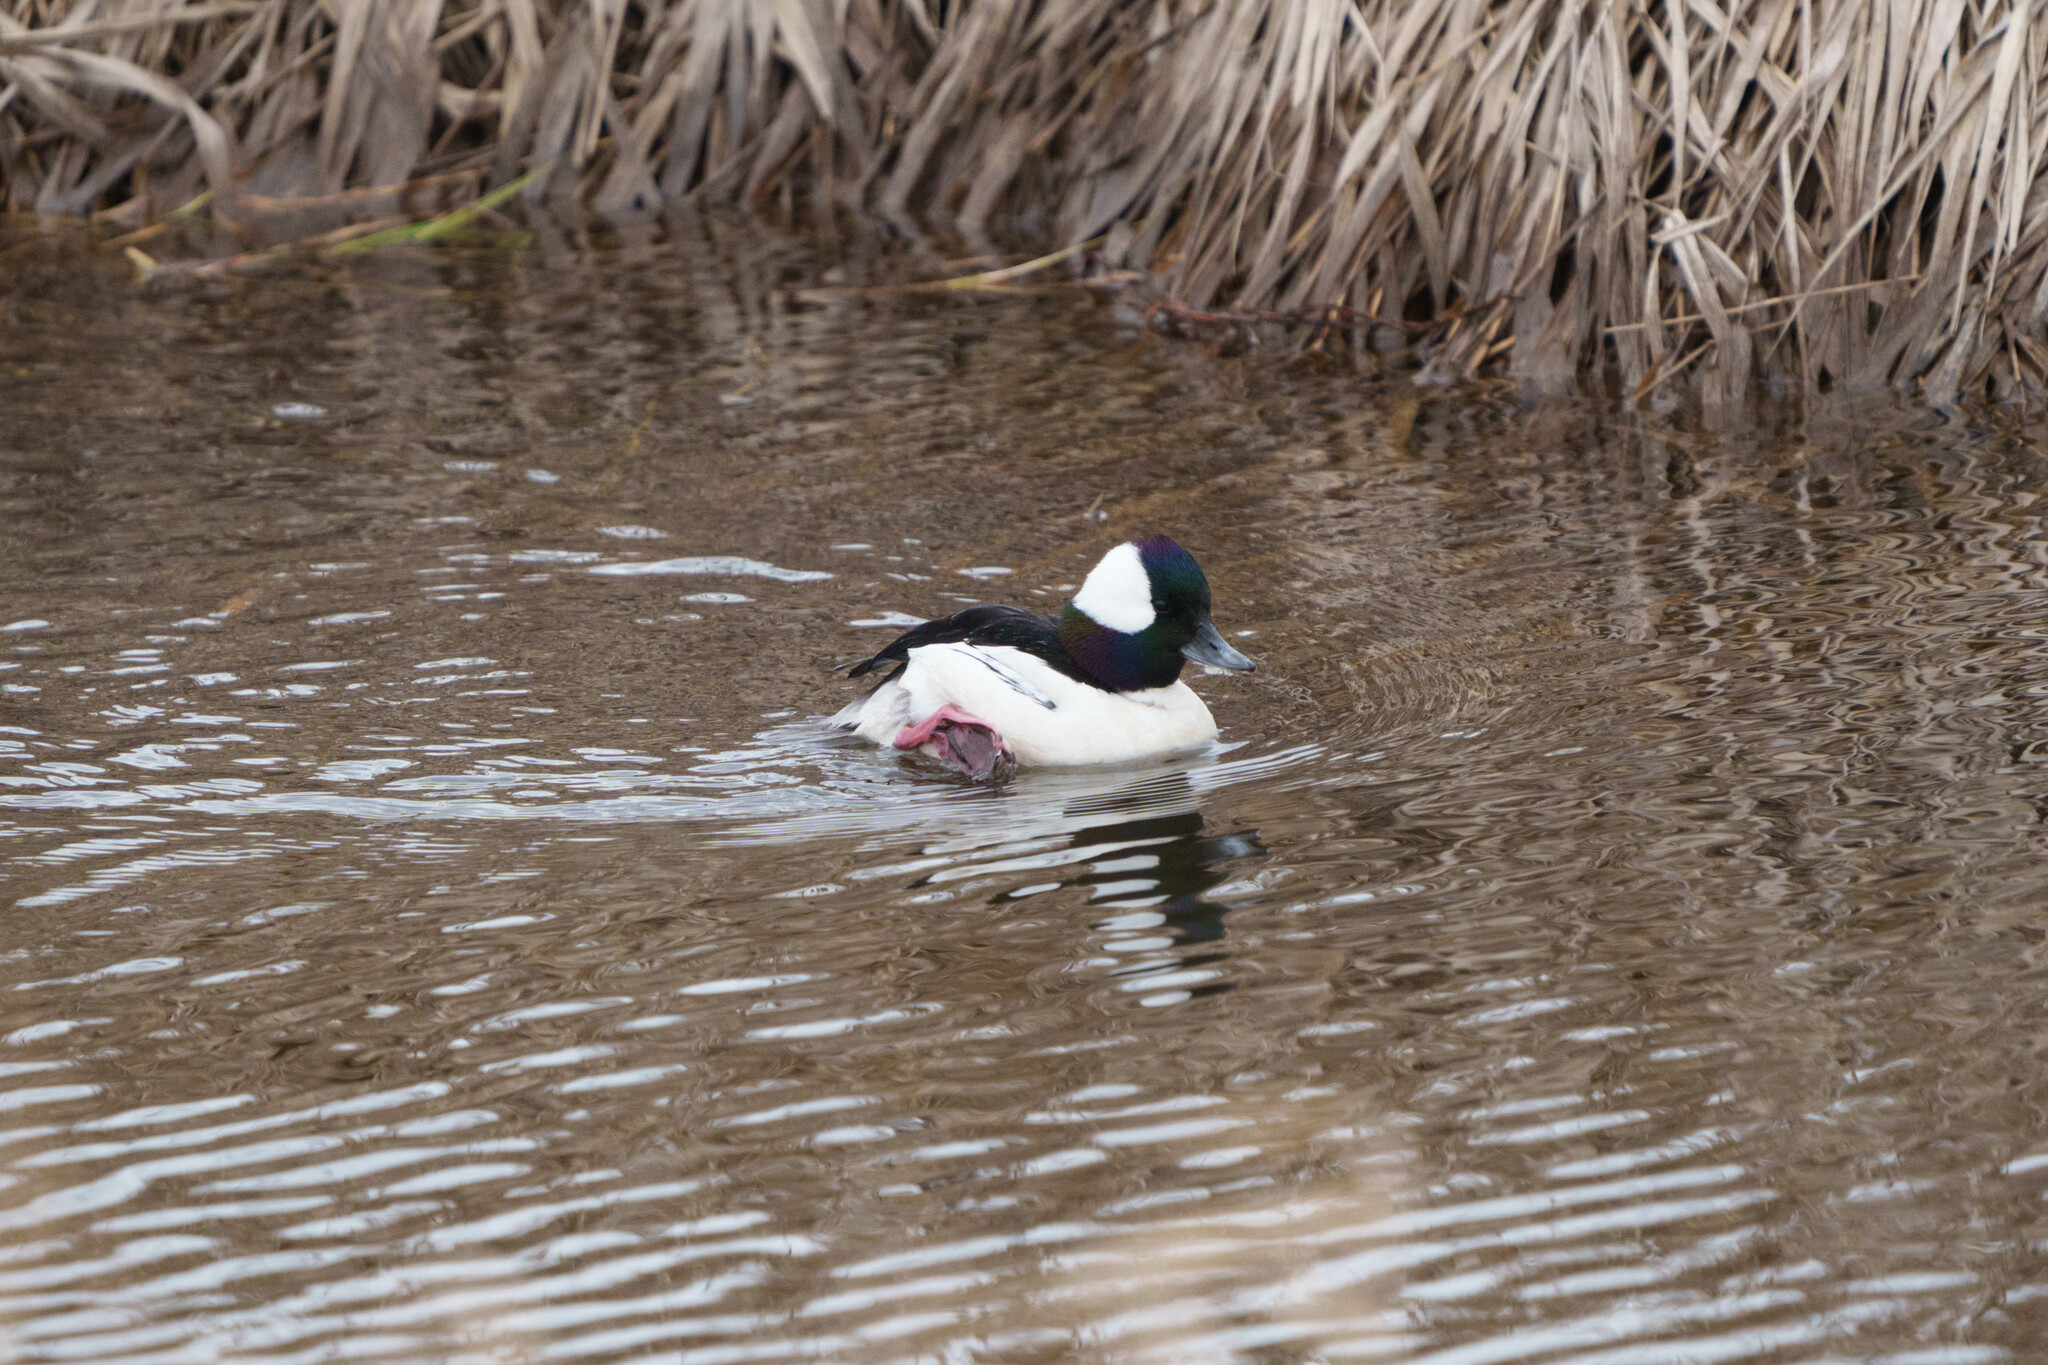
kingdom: Animalia
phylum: Chordata
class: Aves
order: Anseriformes
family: Anatidae
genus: Bucephala
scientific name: Bucephala albeola
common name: Bufflehead
